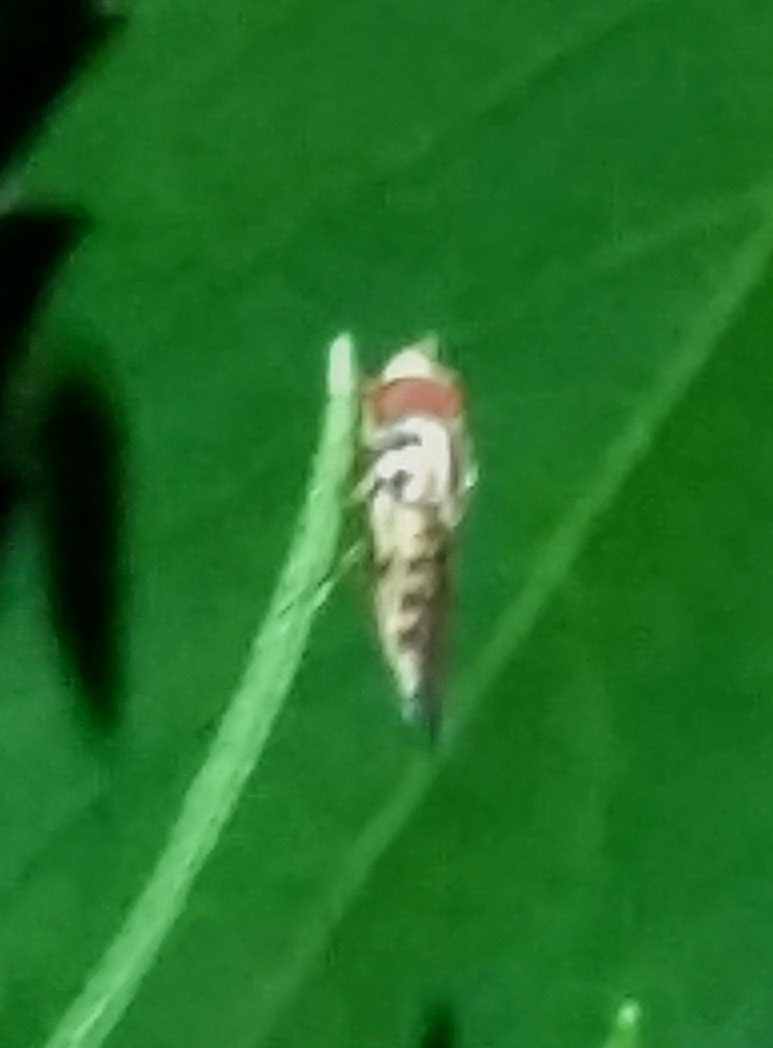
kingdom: Animalia
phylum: Arthropoda
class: Insecta
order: Diptera
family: Syrphidae
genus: Toxomerus
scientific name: Toxomerus geminatus
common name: Eastern calligrapher
